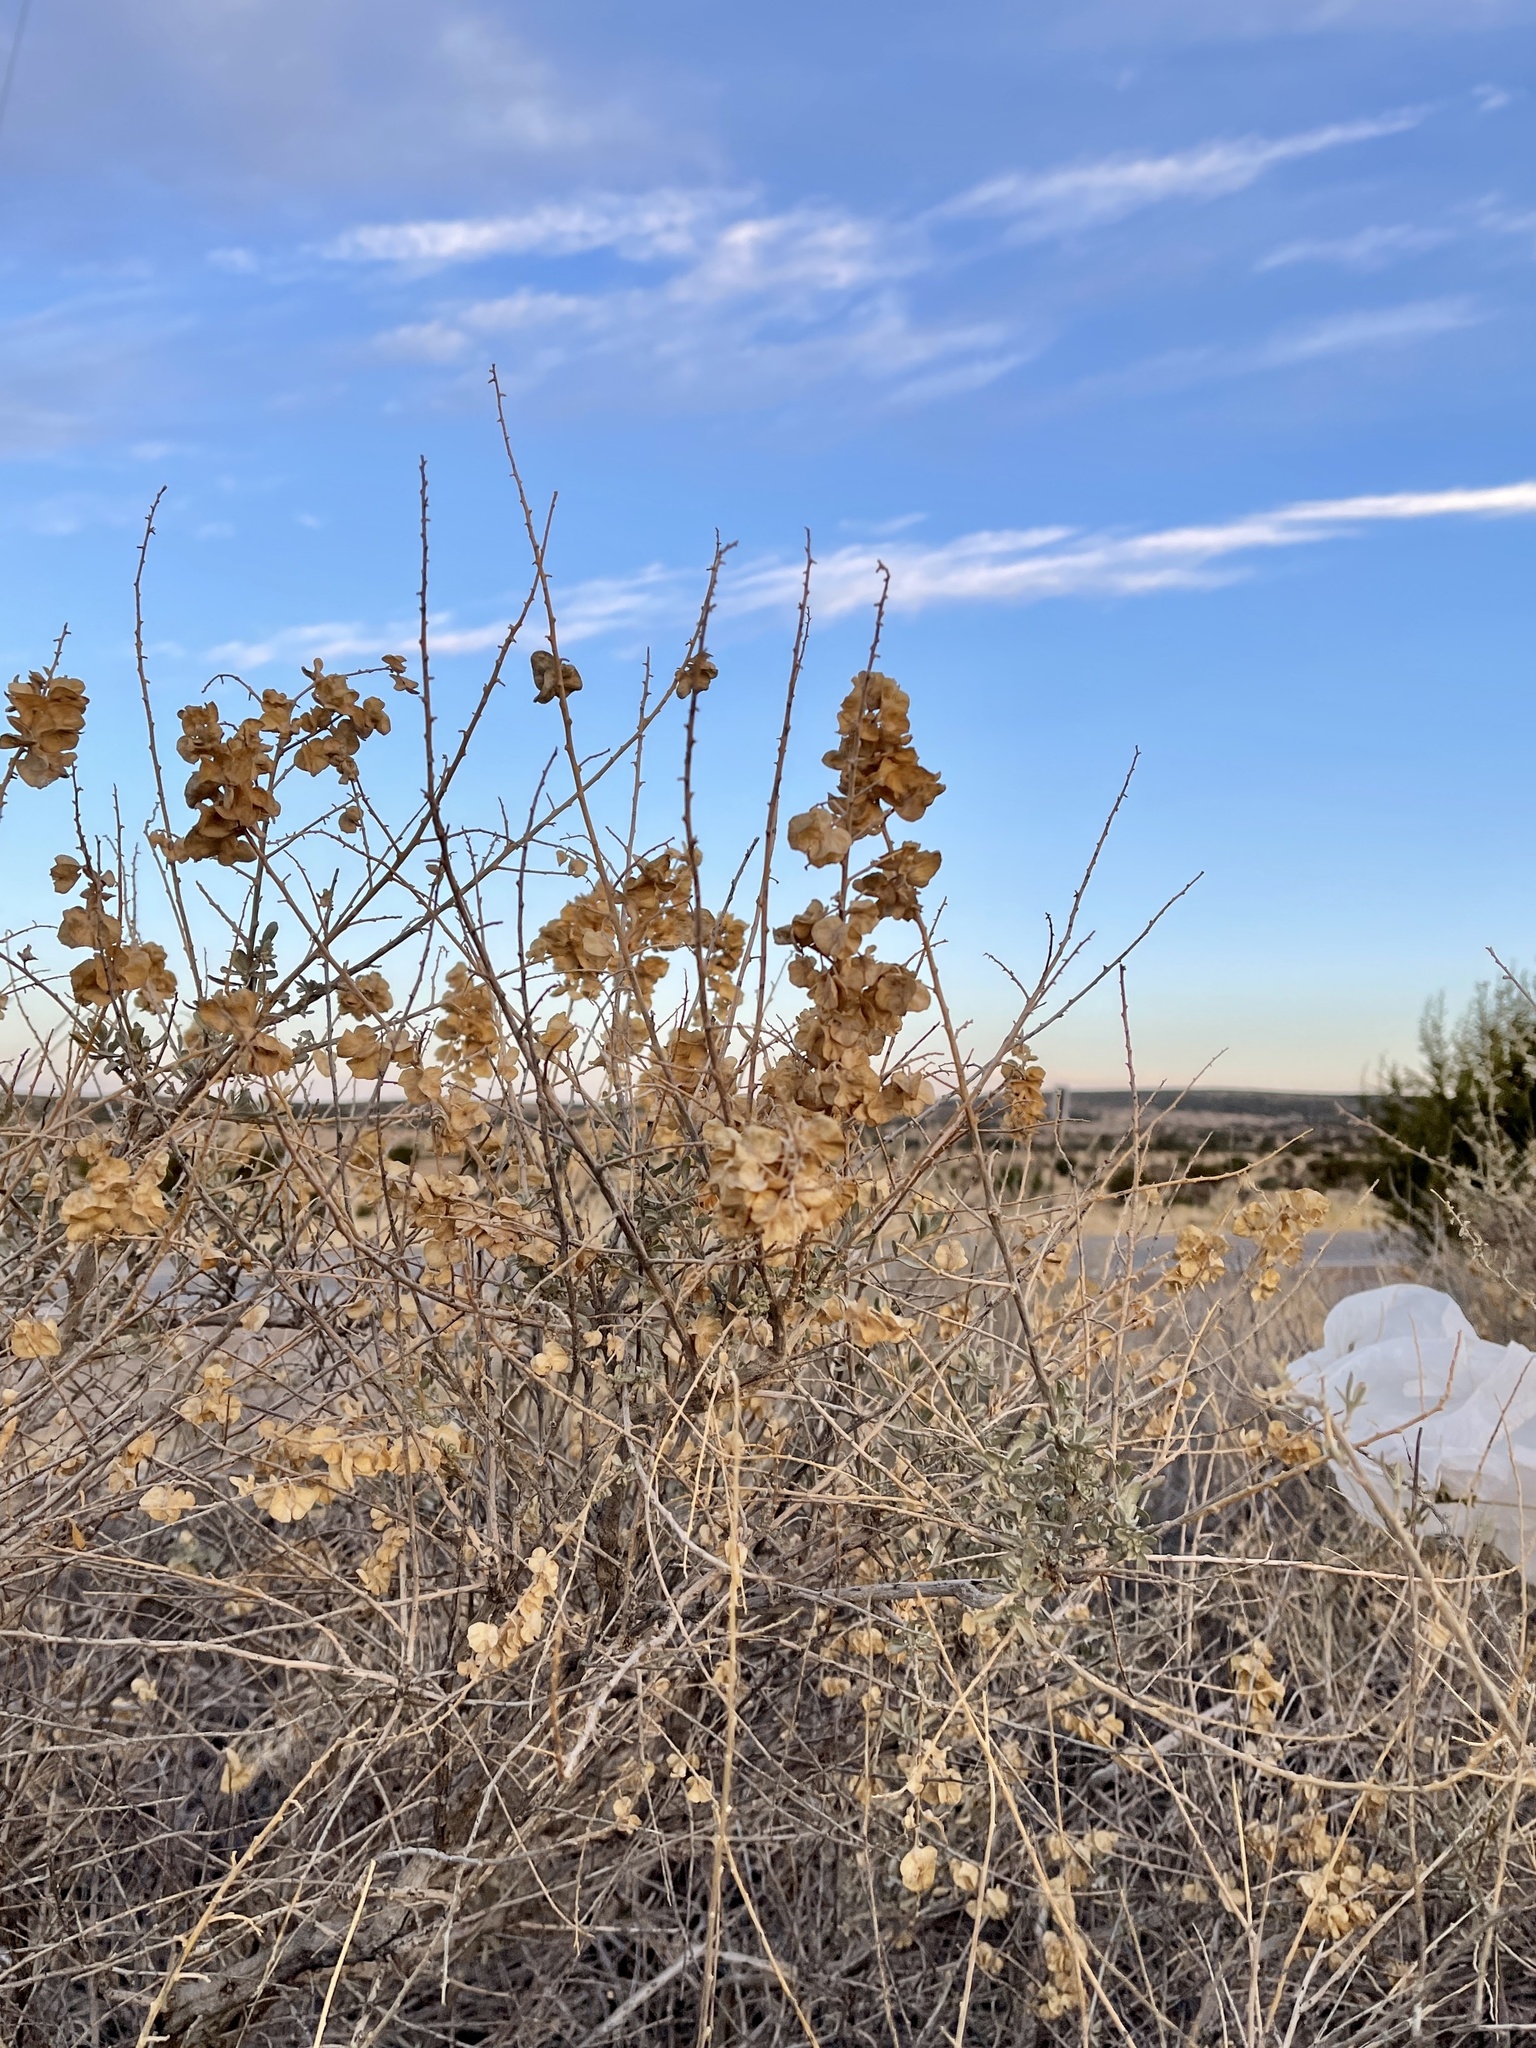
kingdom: Plantae
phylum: Tracheophyta
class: Magnoliopsida
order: Caryophyllales
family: Amaranthaceae
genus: Atriplex
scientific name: Atriplex canescens
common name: Four-wing saltbush
